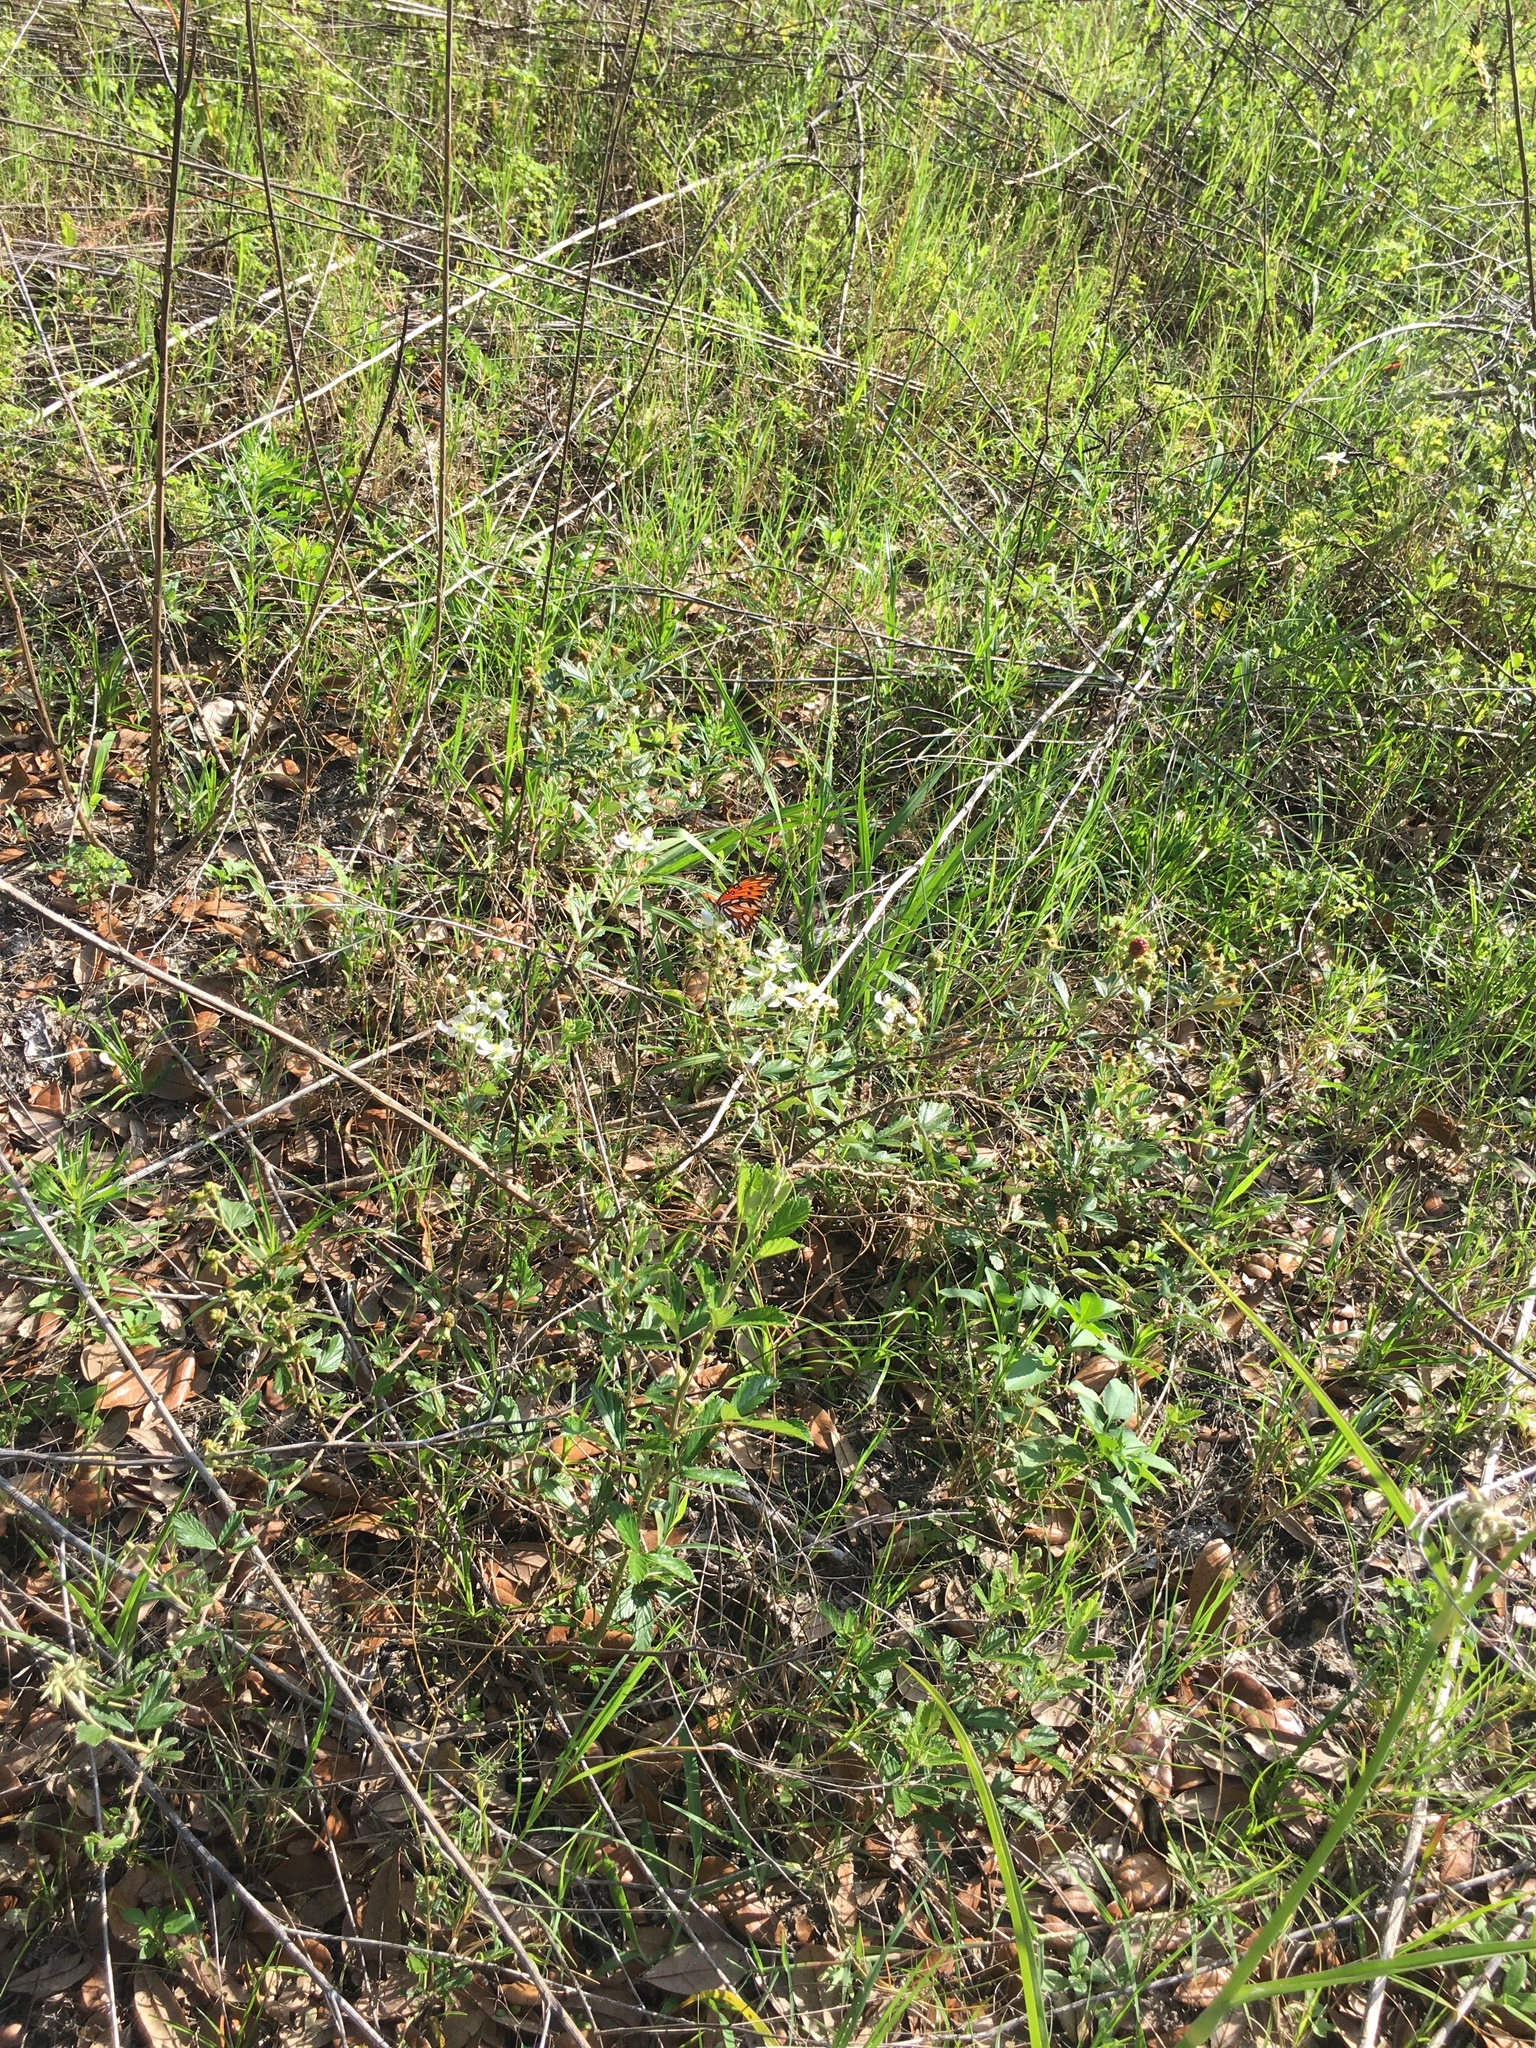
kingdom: Animalia
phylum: Arthropoda
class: Insecta
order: Lepidoptera
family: Nymphalidae
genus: Dione
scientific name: Dione vanillae
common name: Gulf fritillary
